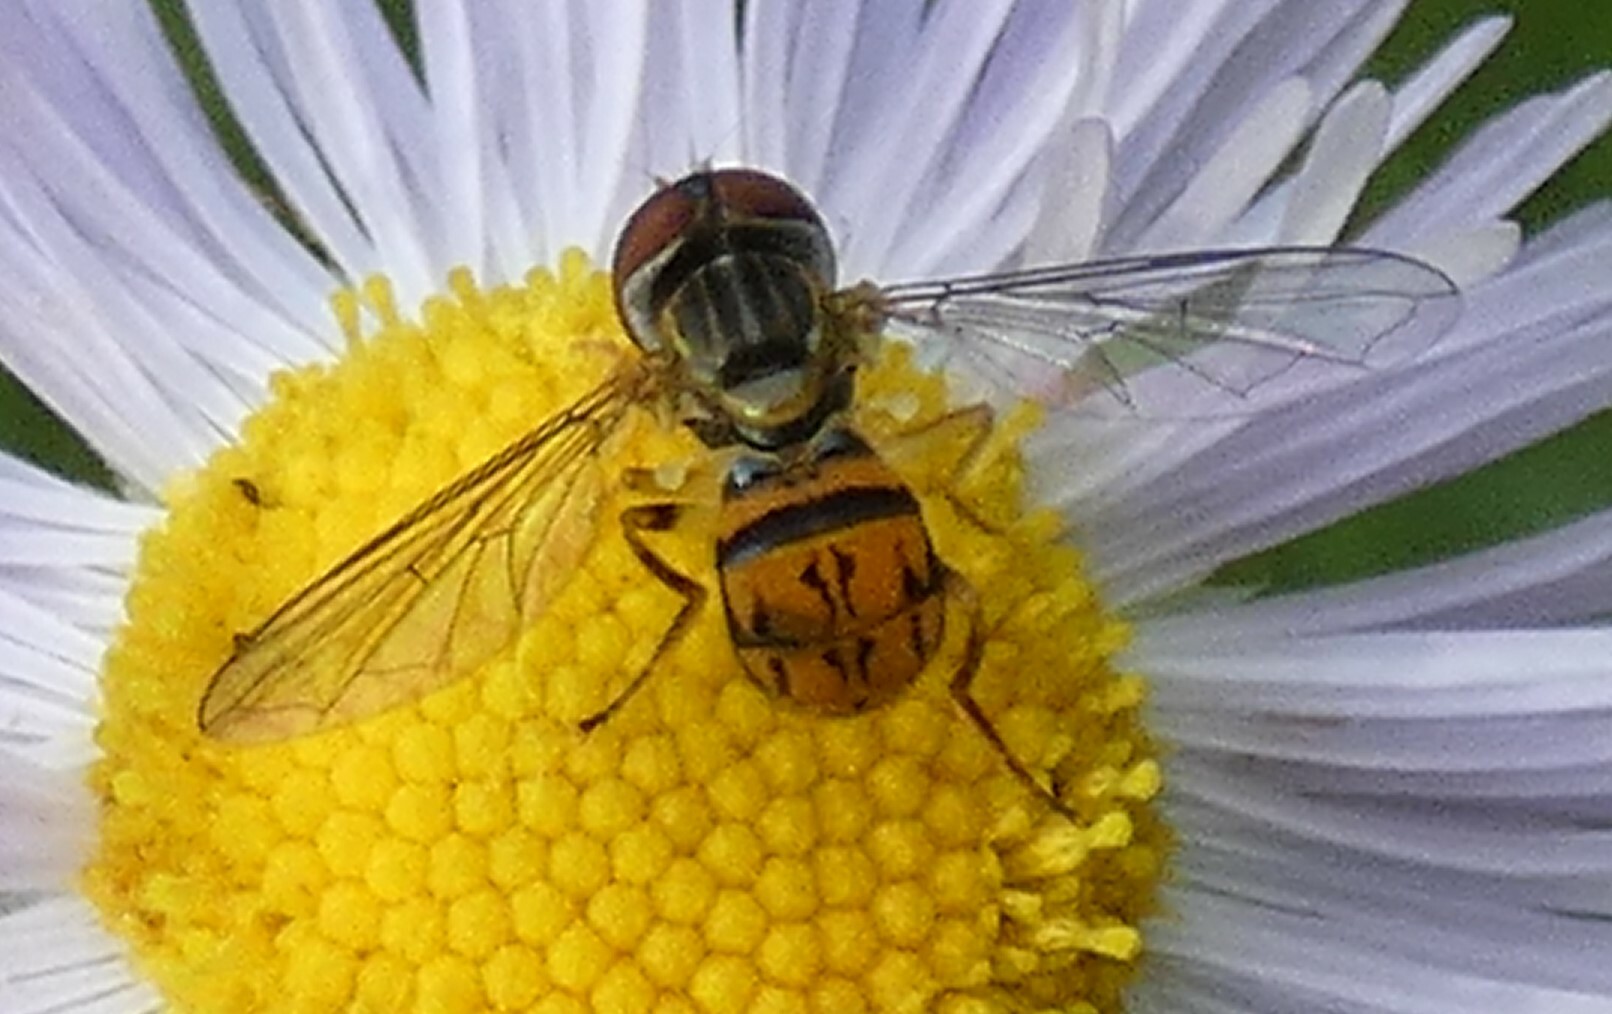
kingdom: Animalia
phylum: Arthropoda
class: Insecta
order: Diptera
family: Syrphidae
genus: Toxomerus
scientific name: Toxomerus boscii
